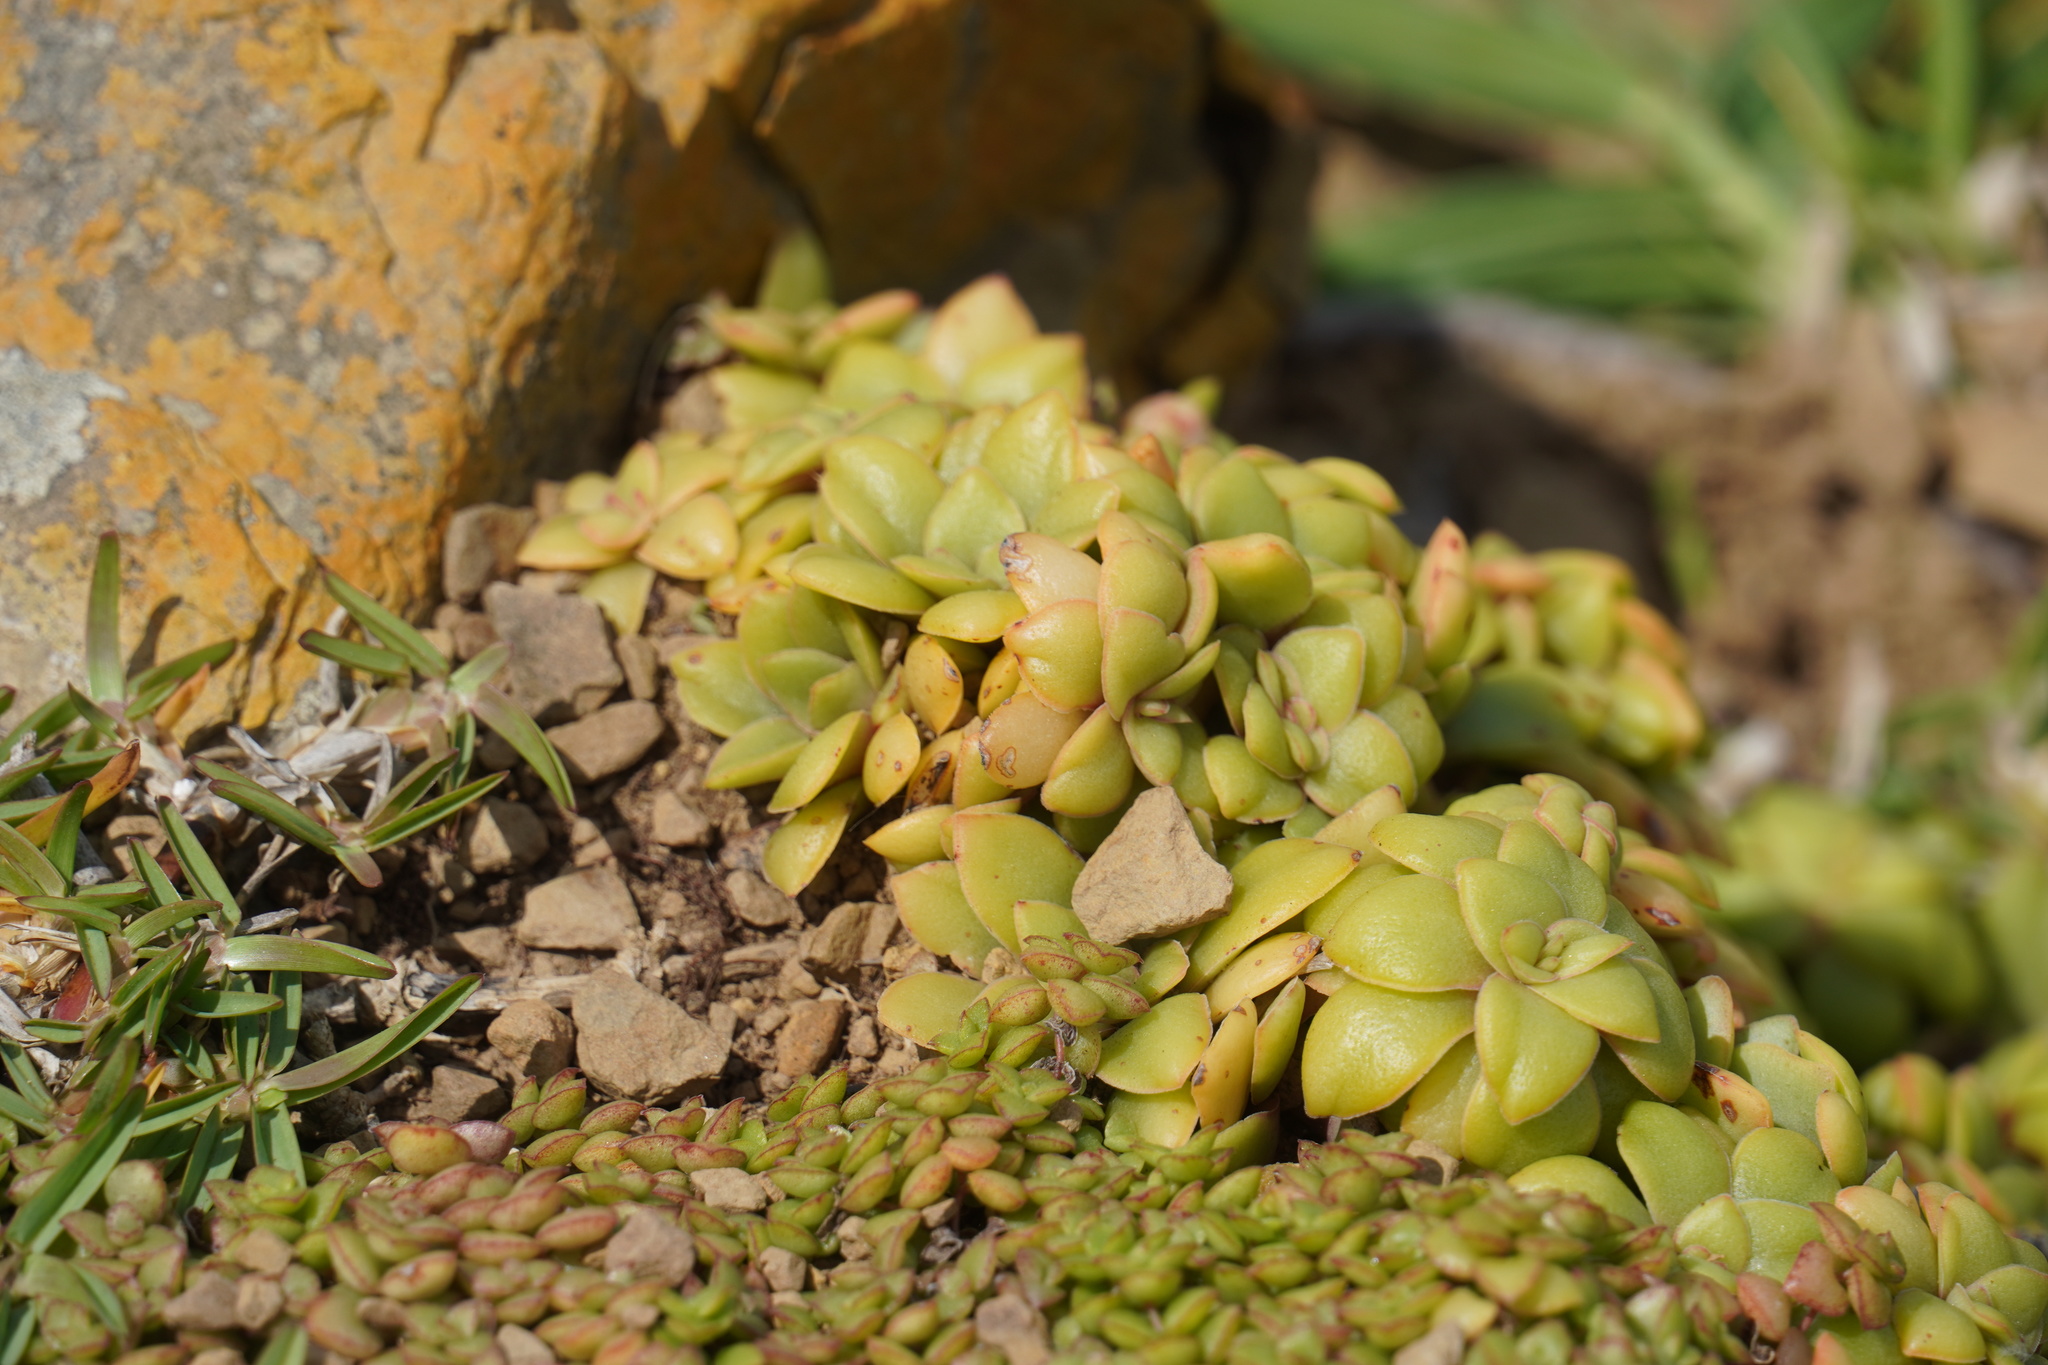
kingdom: Plantae
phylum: Tracheophyta
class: Magnoliopsida
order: Saxifragales
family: Crassulaceae
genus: Crassula
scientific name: Crassula orbicularis
